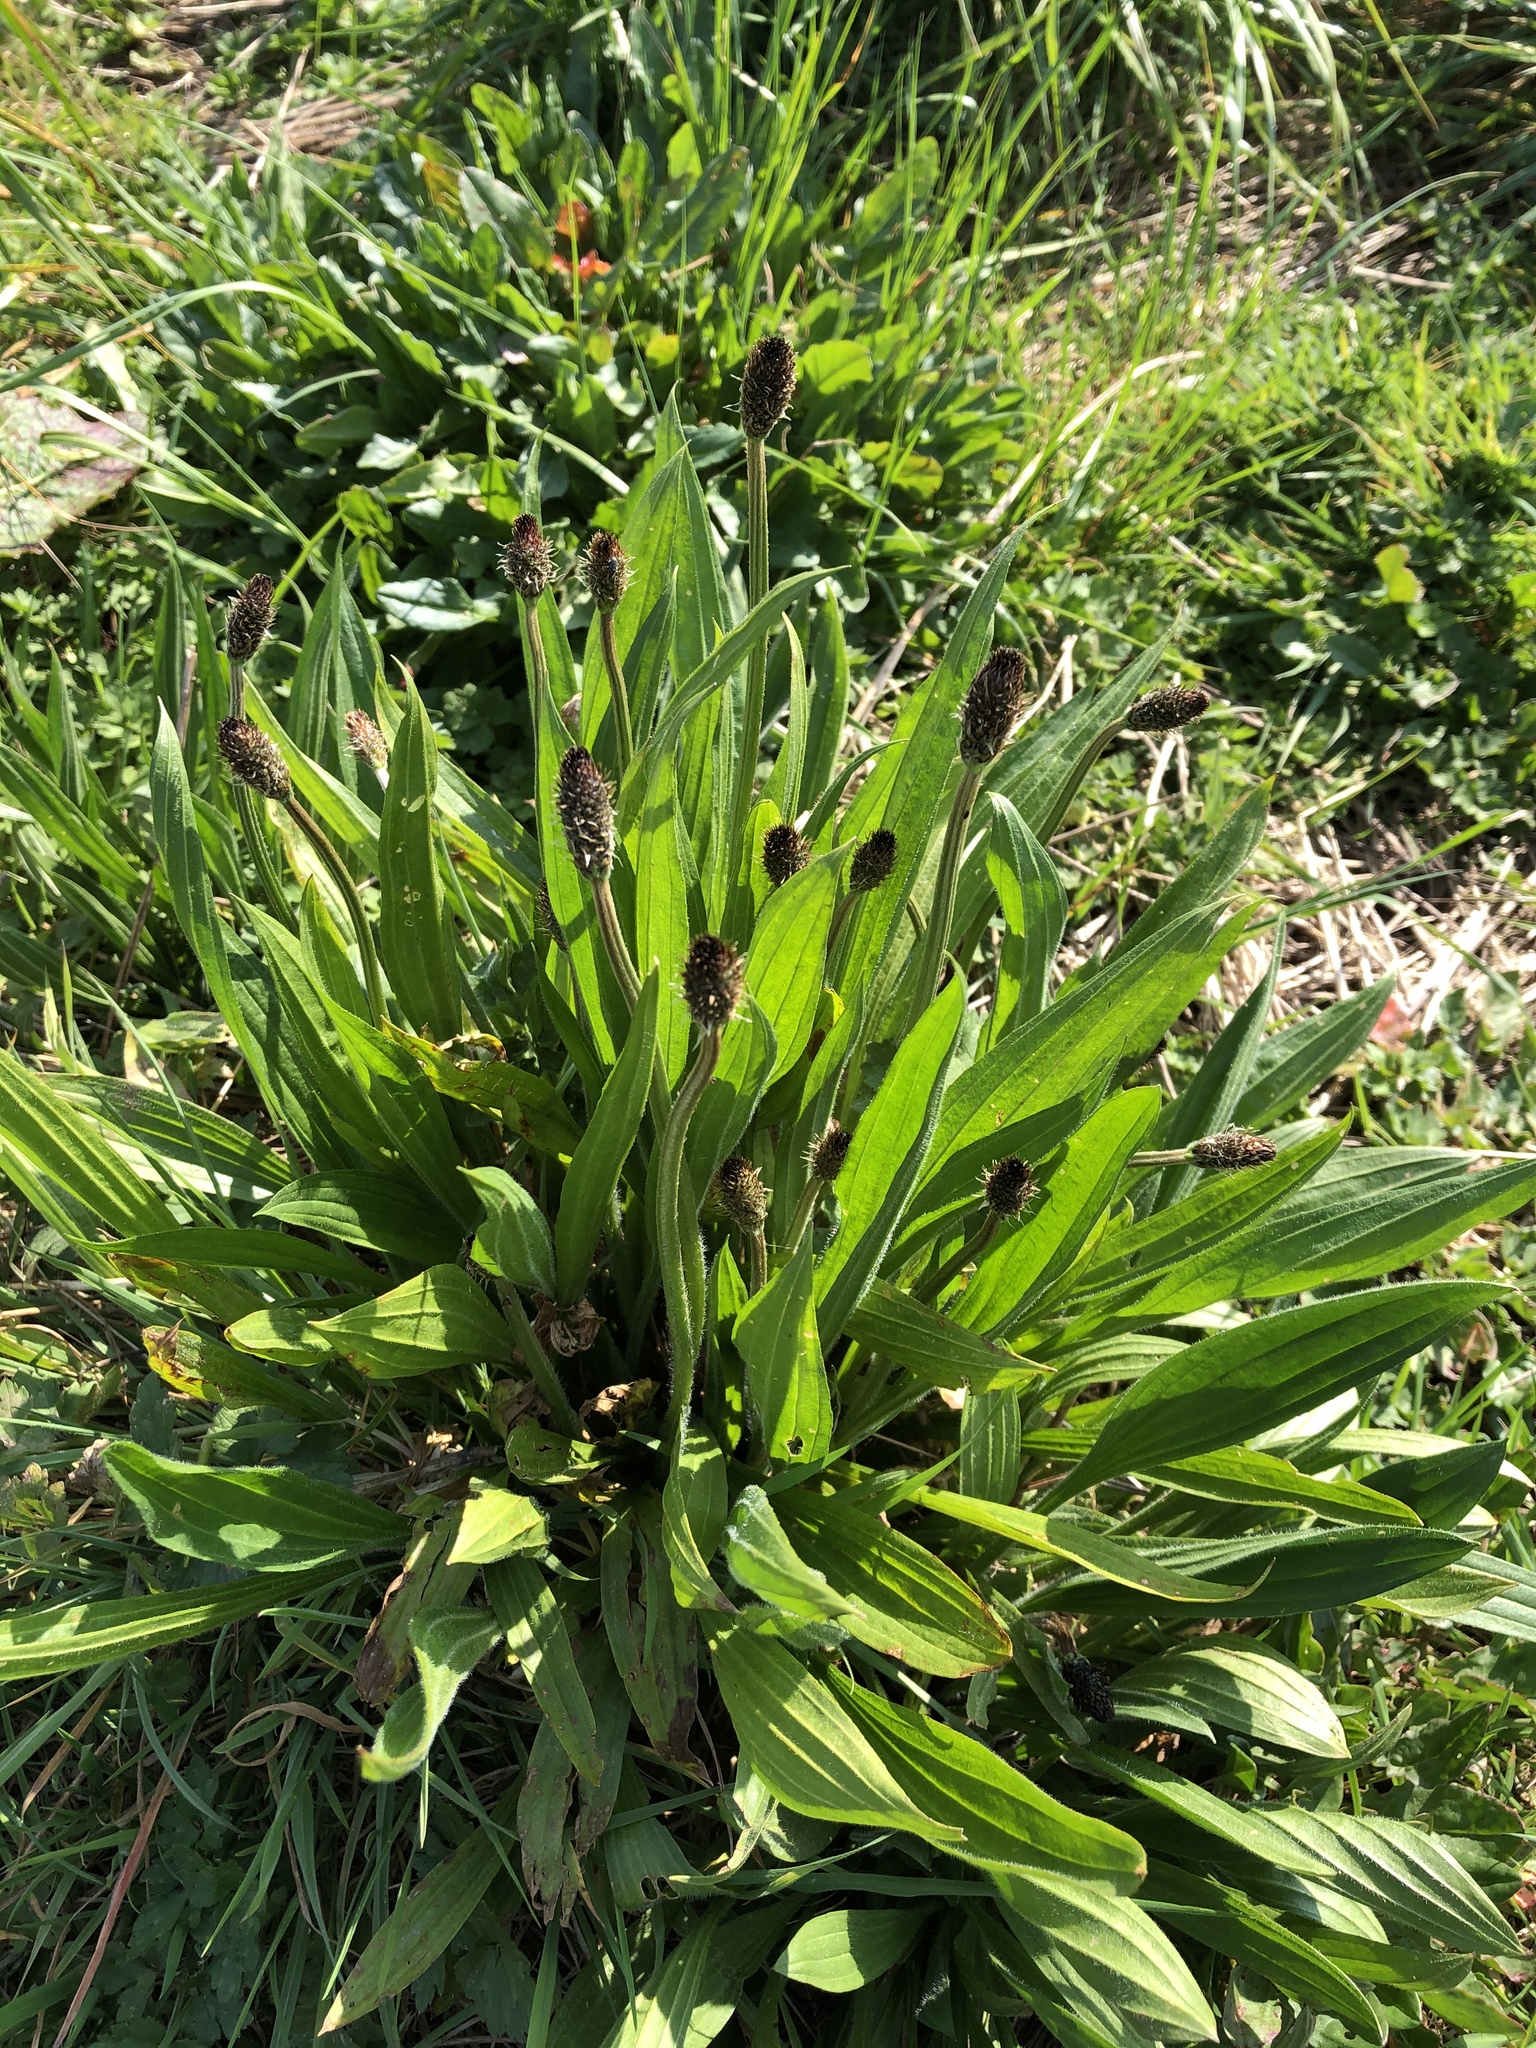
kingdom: Plantae
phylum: Tracheophyta
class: Magnoliopsida
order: Lamiales
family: Plantaginaceae
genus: Plantago
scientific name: Plantago lanceolata
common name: Ribwort plantain
